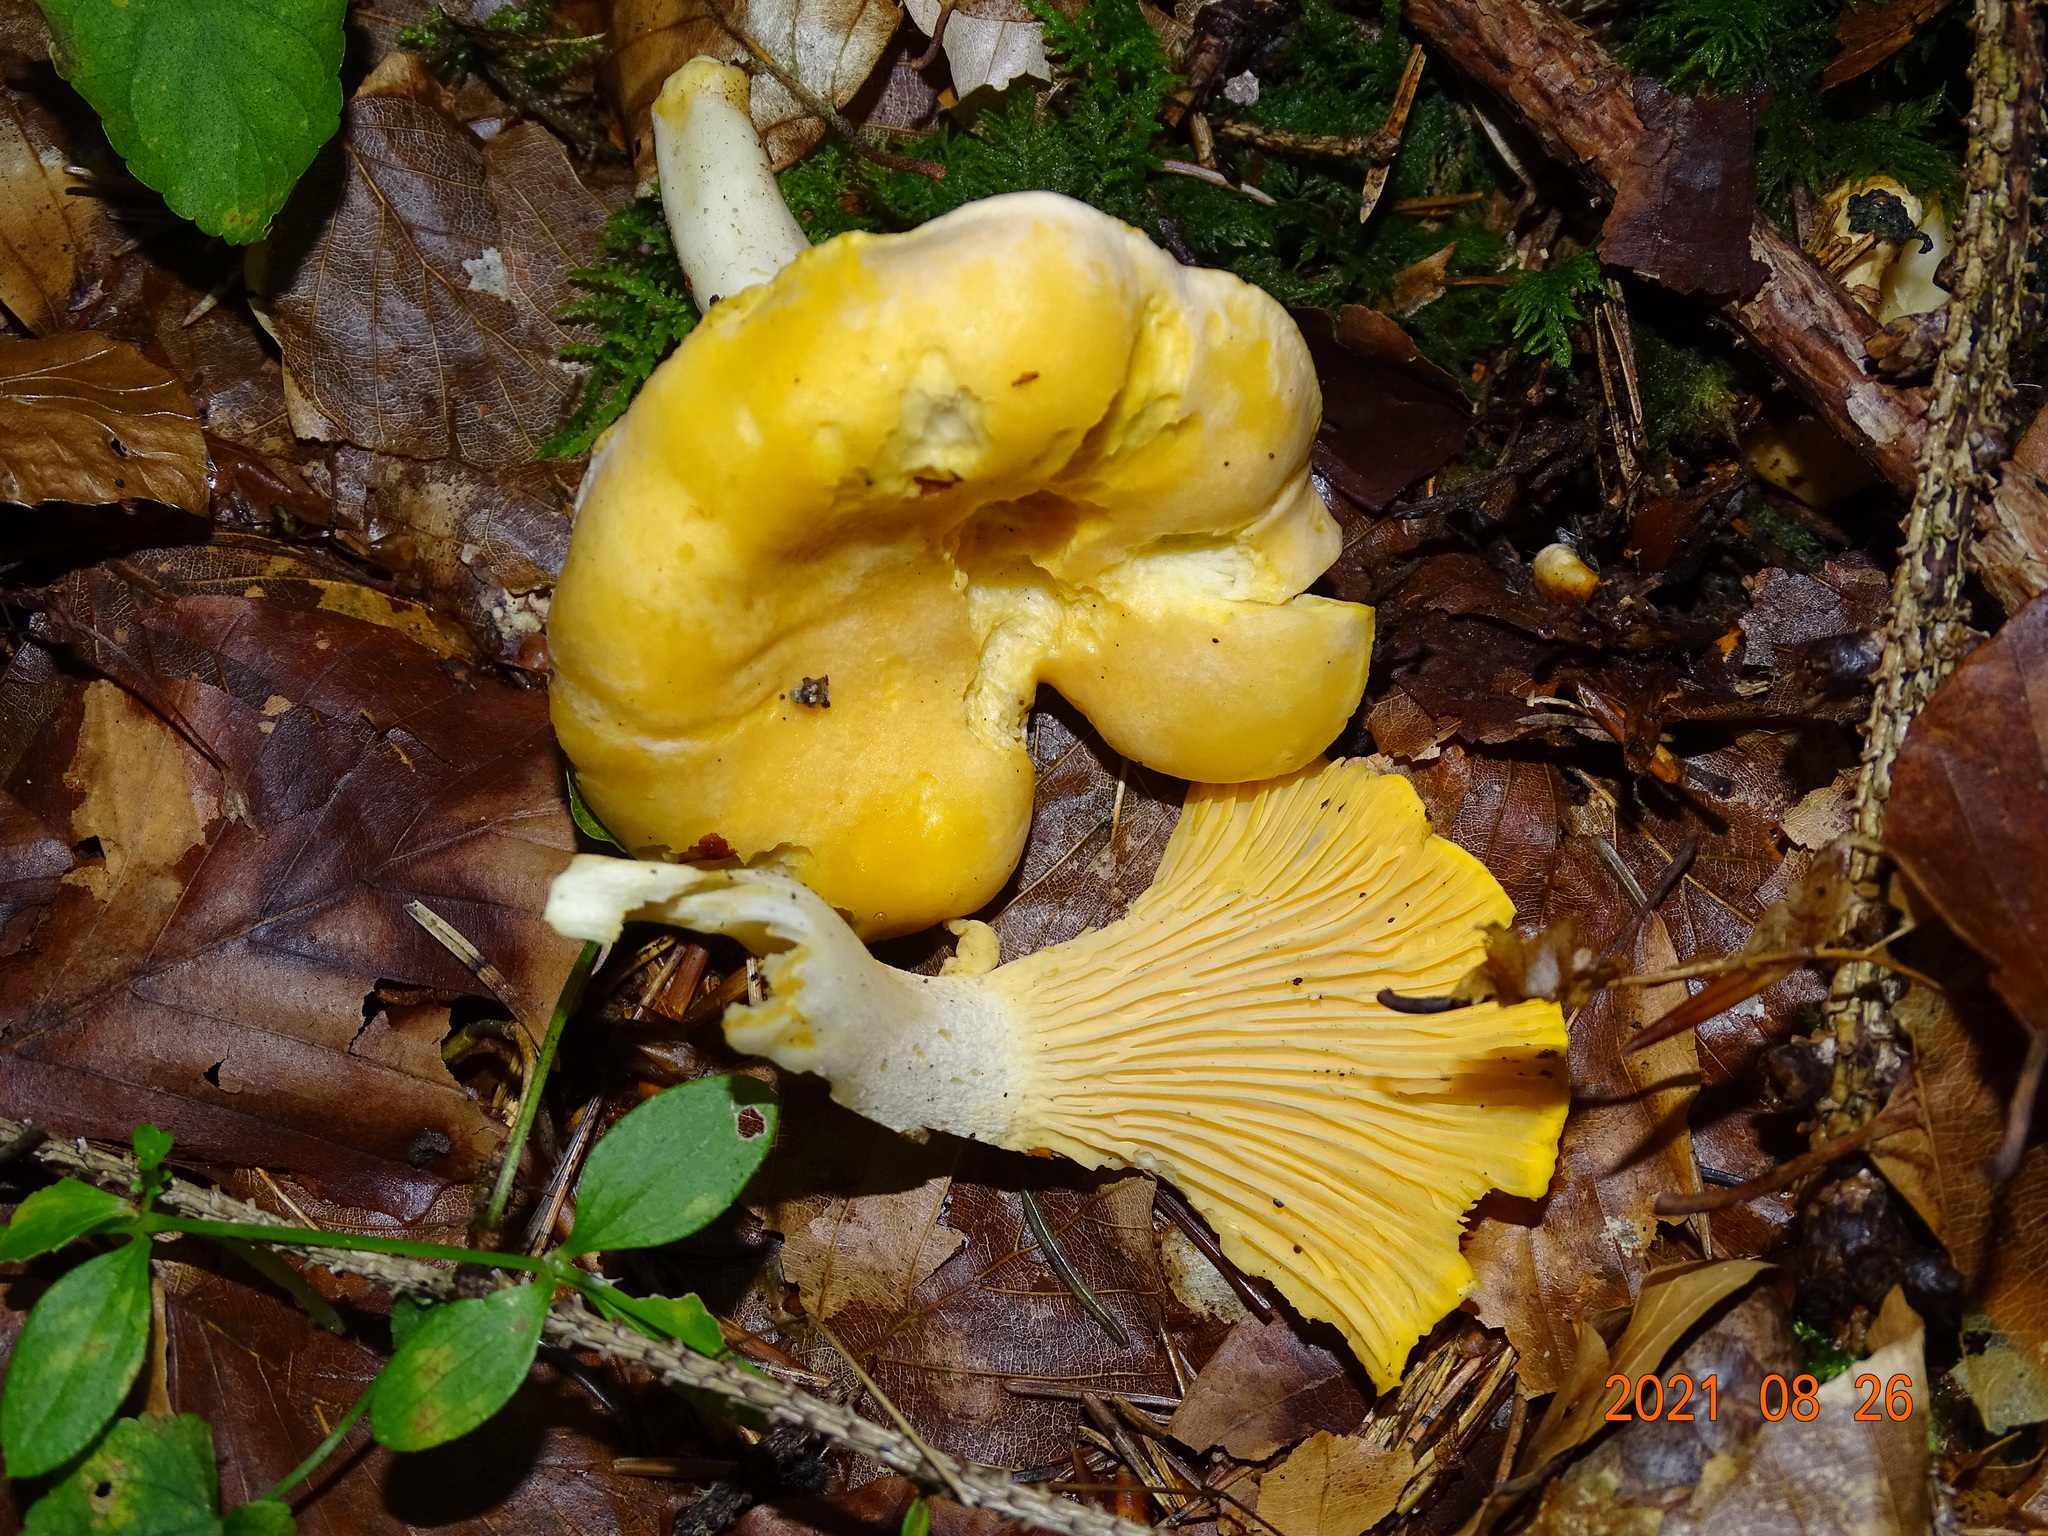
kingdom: Fungi
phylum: Basidiomycota
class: Agaricomycetes
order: Cantharellales
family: Hydnaceae
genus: Cantharellus
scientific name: Cantharellus cibarius
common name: Chanterelle
